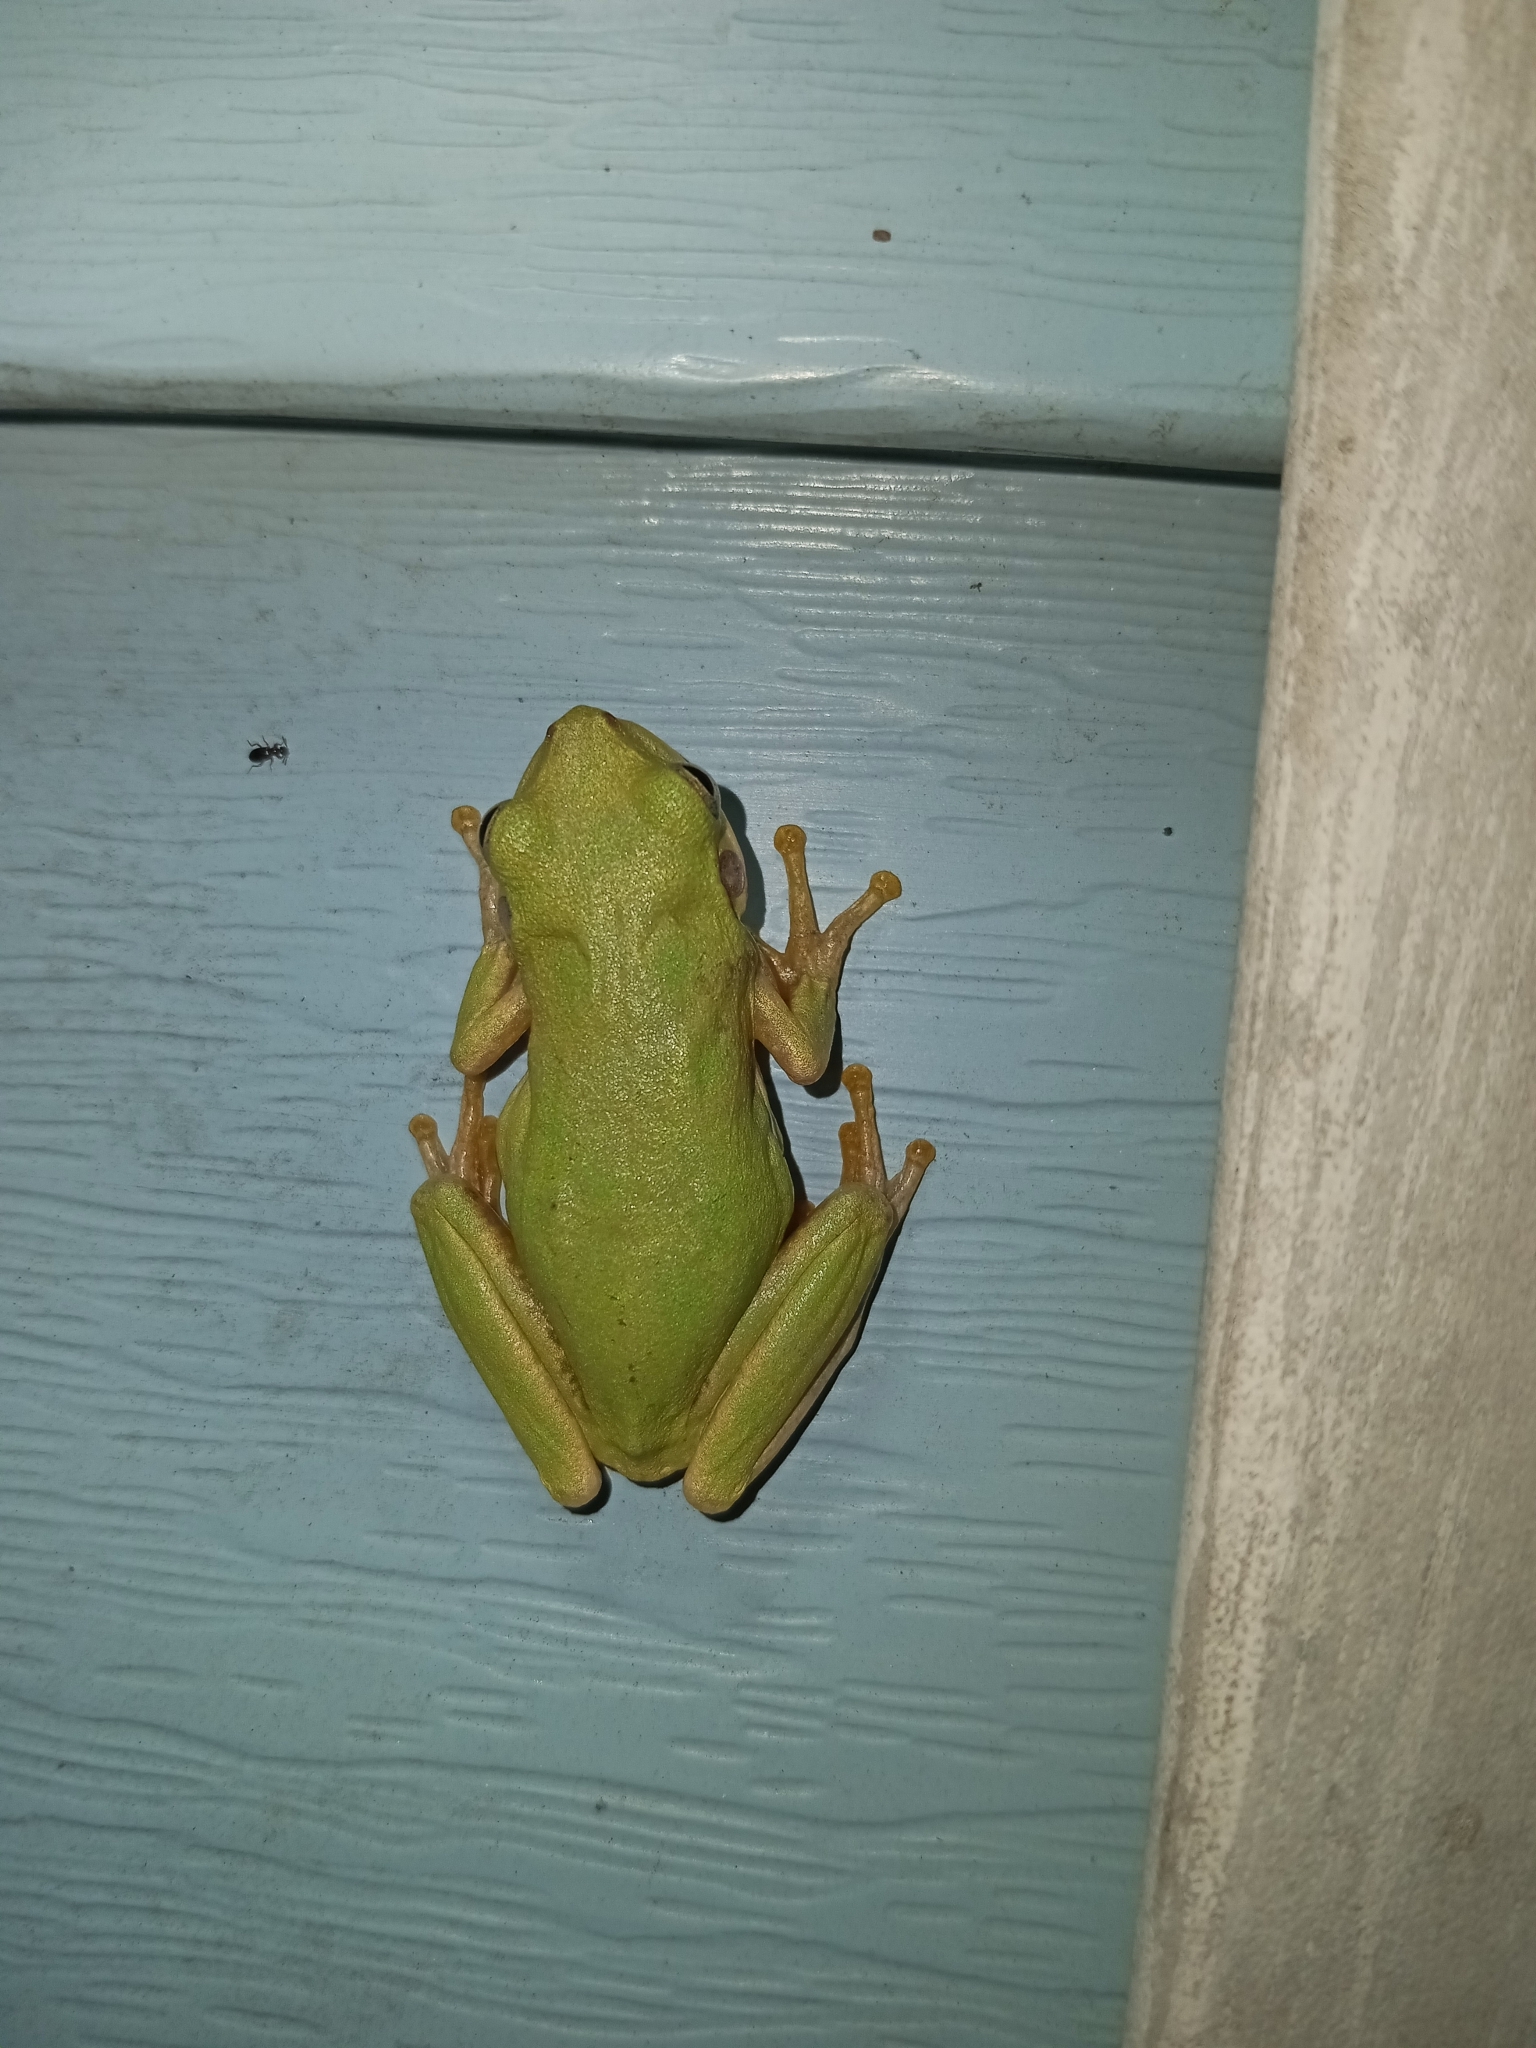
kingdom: Animalia
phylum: Chordata
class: Amphibia
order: Anura
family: Hylidae
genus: Dryophytes
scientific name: Dryophytes squirellus
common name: Squirrel treefrog
